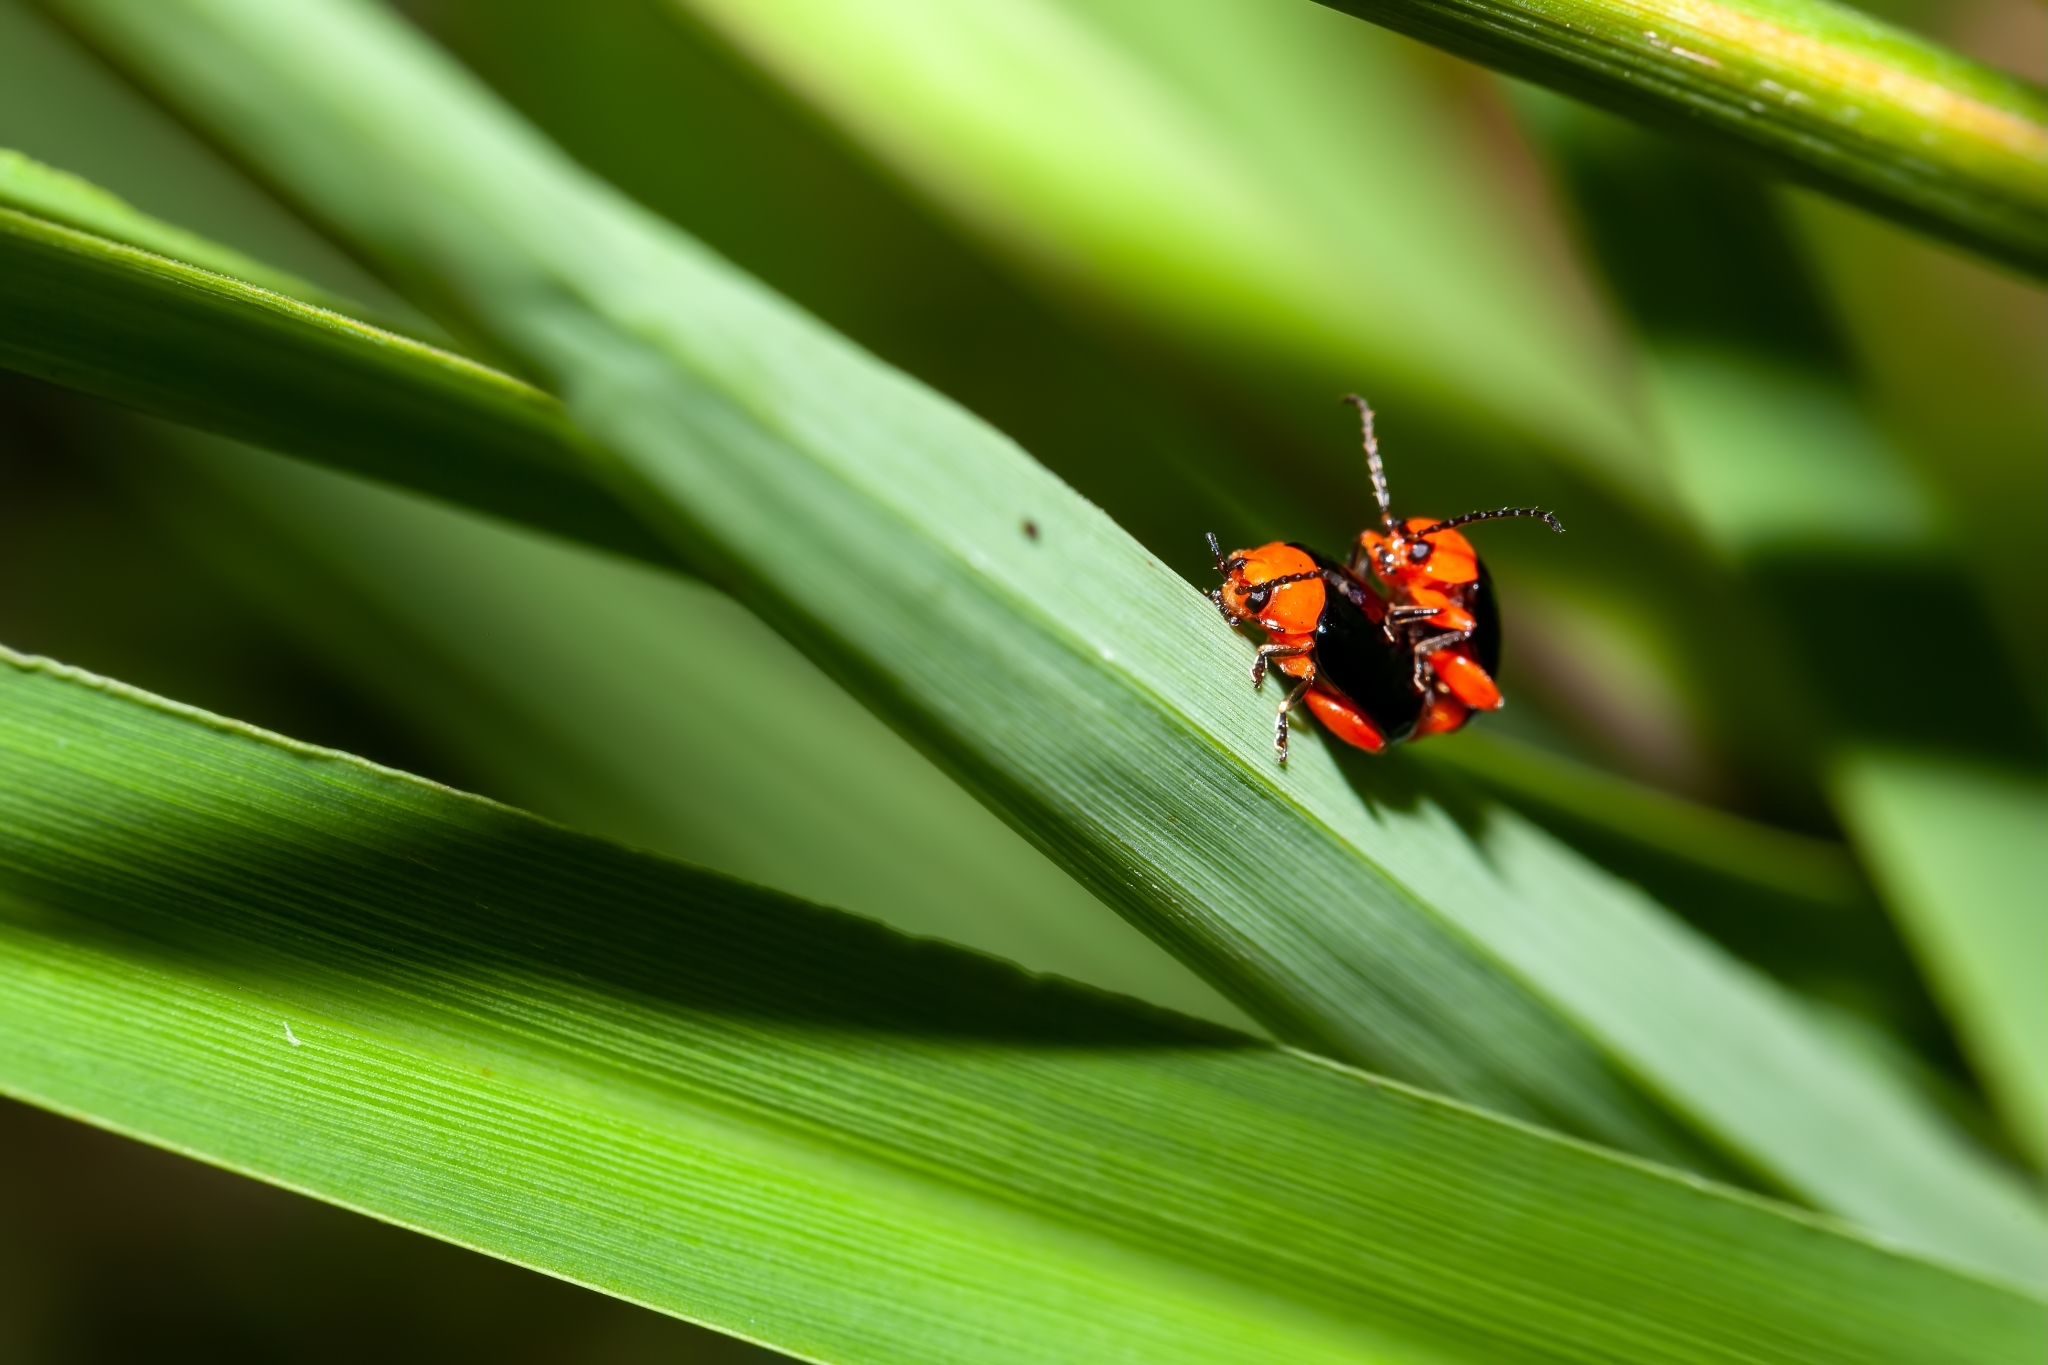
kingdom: Animalia
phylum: Arthropoda
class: Insecta
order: Coleoptera
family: Chrysomelidae
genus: Asphaera
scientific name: Asphaera lustrans
